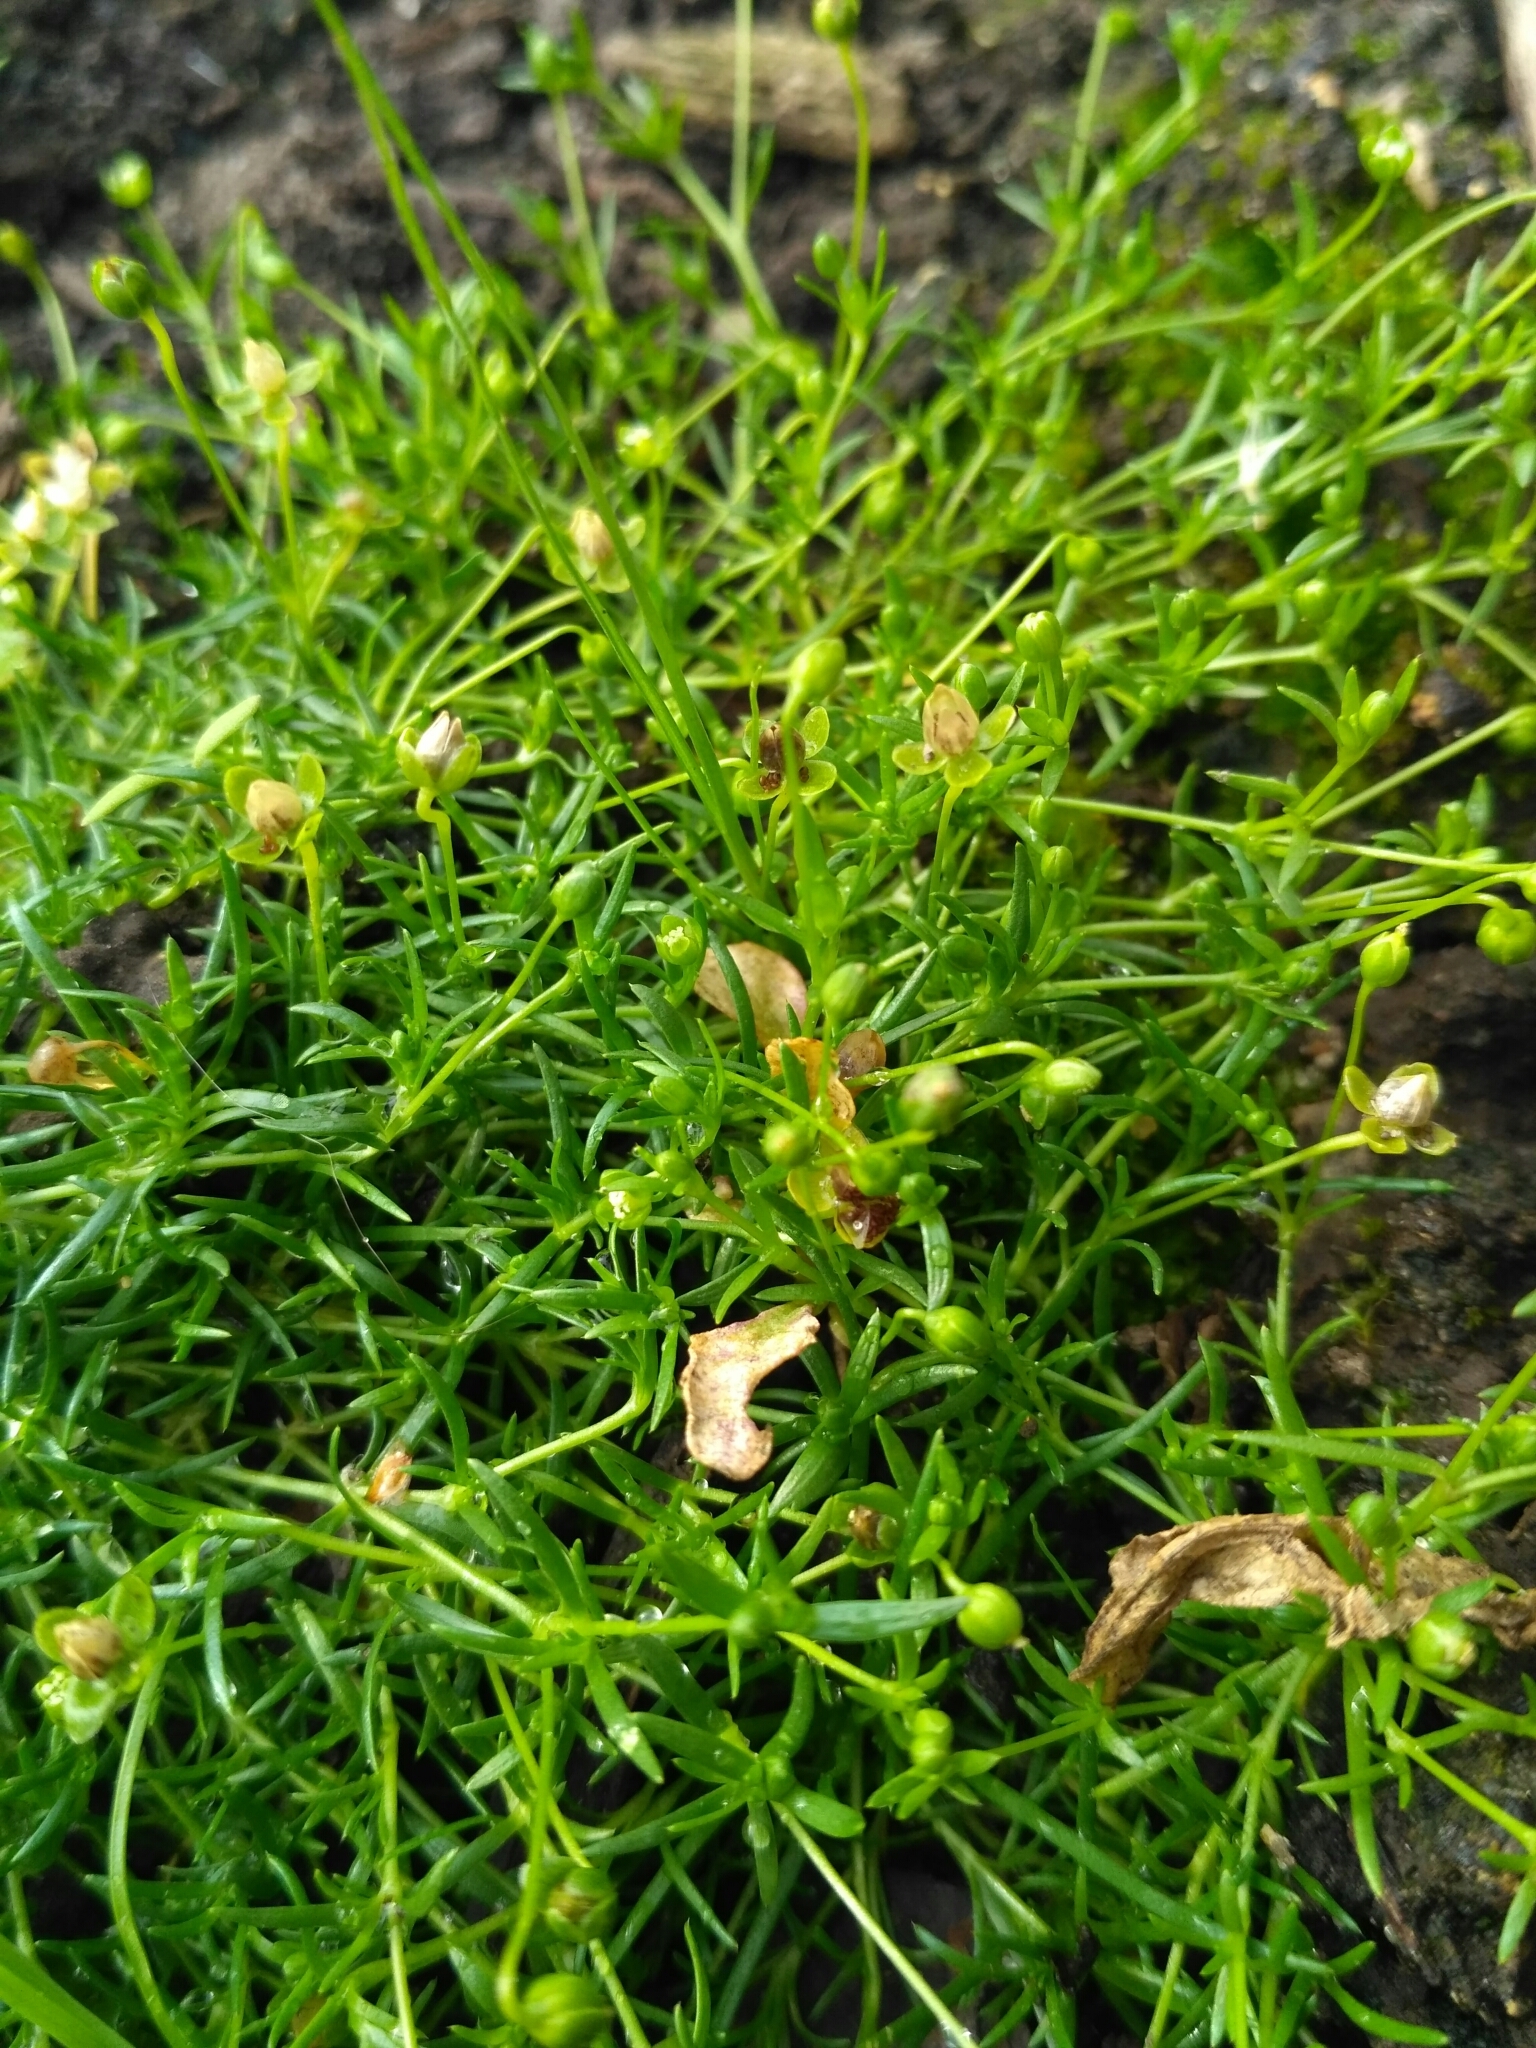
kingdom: Plantae
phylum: Tracheophyta
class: Magnoliopsida
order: Caryophyllales
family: Caryophyllaceae
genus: Sagina
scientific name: Sagina procumbens
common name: Procumbent pearlwort
